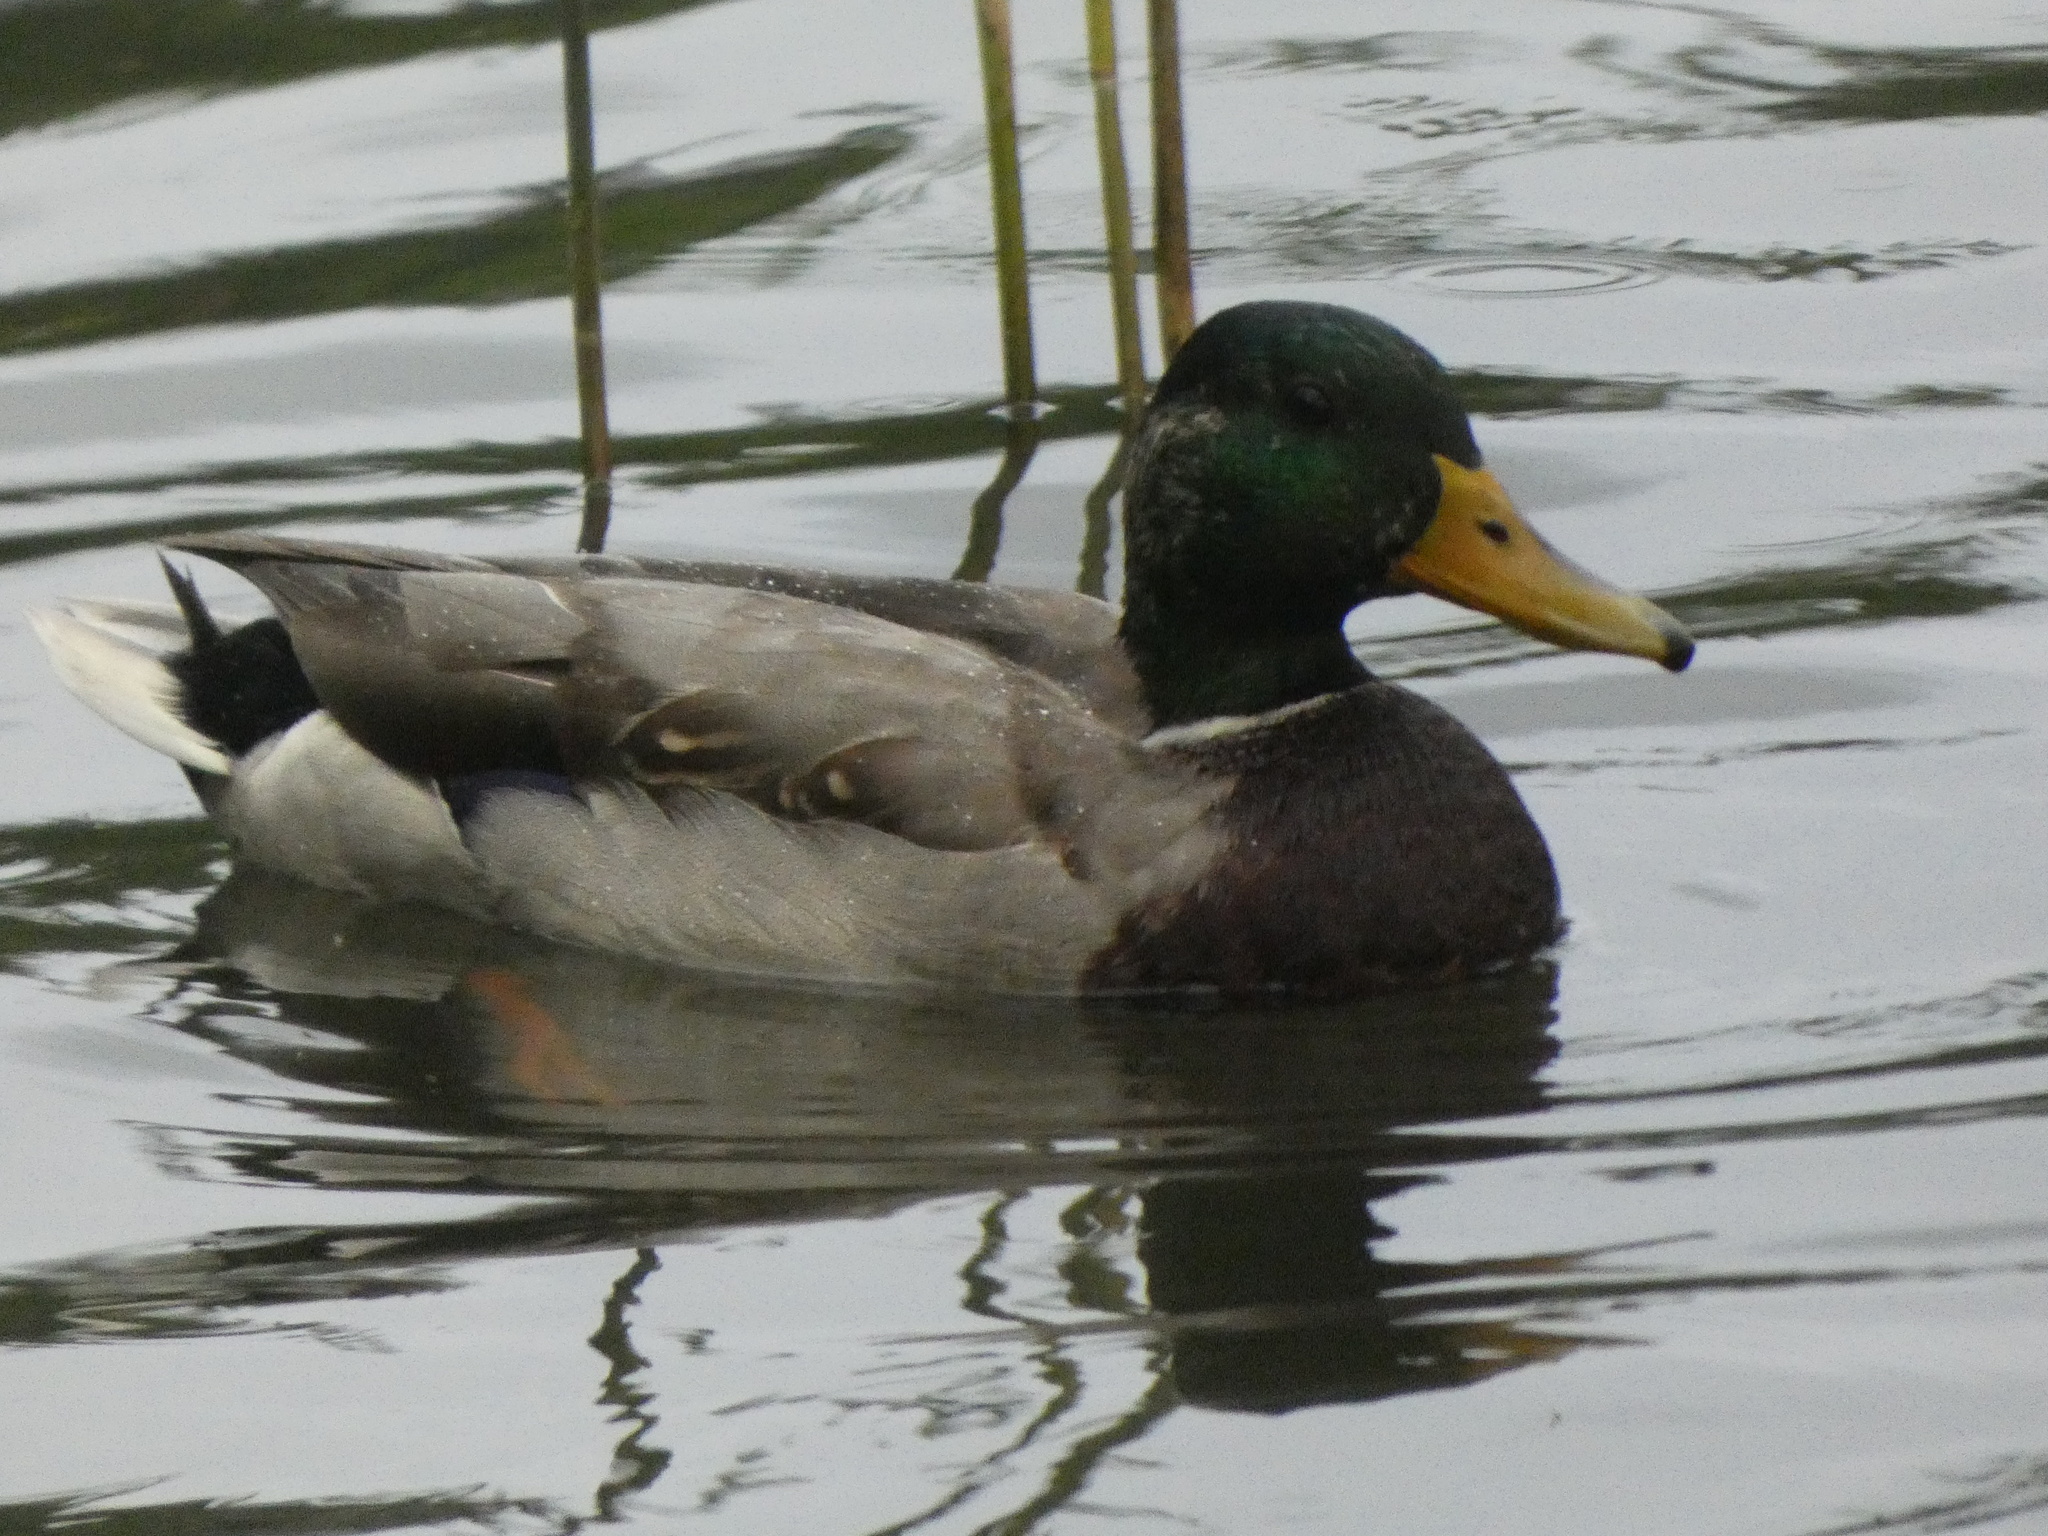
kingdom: Animalia
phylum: Chordata
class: Aves
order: Anseriformes
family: Anatidae
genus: Anas
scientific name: Anas platyrhynchos
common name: Mallard
